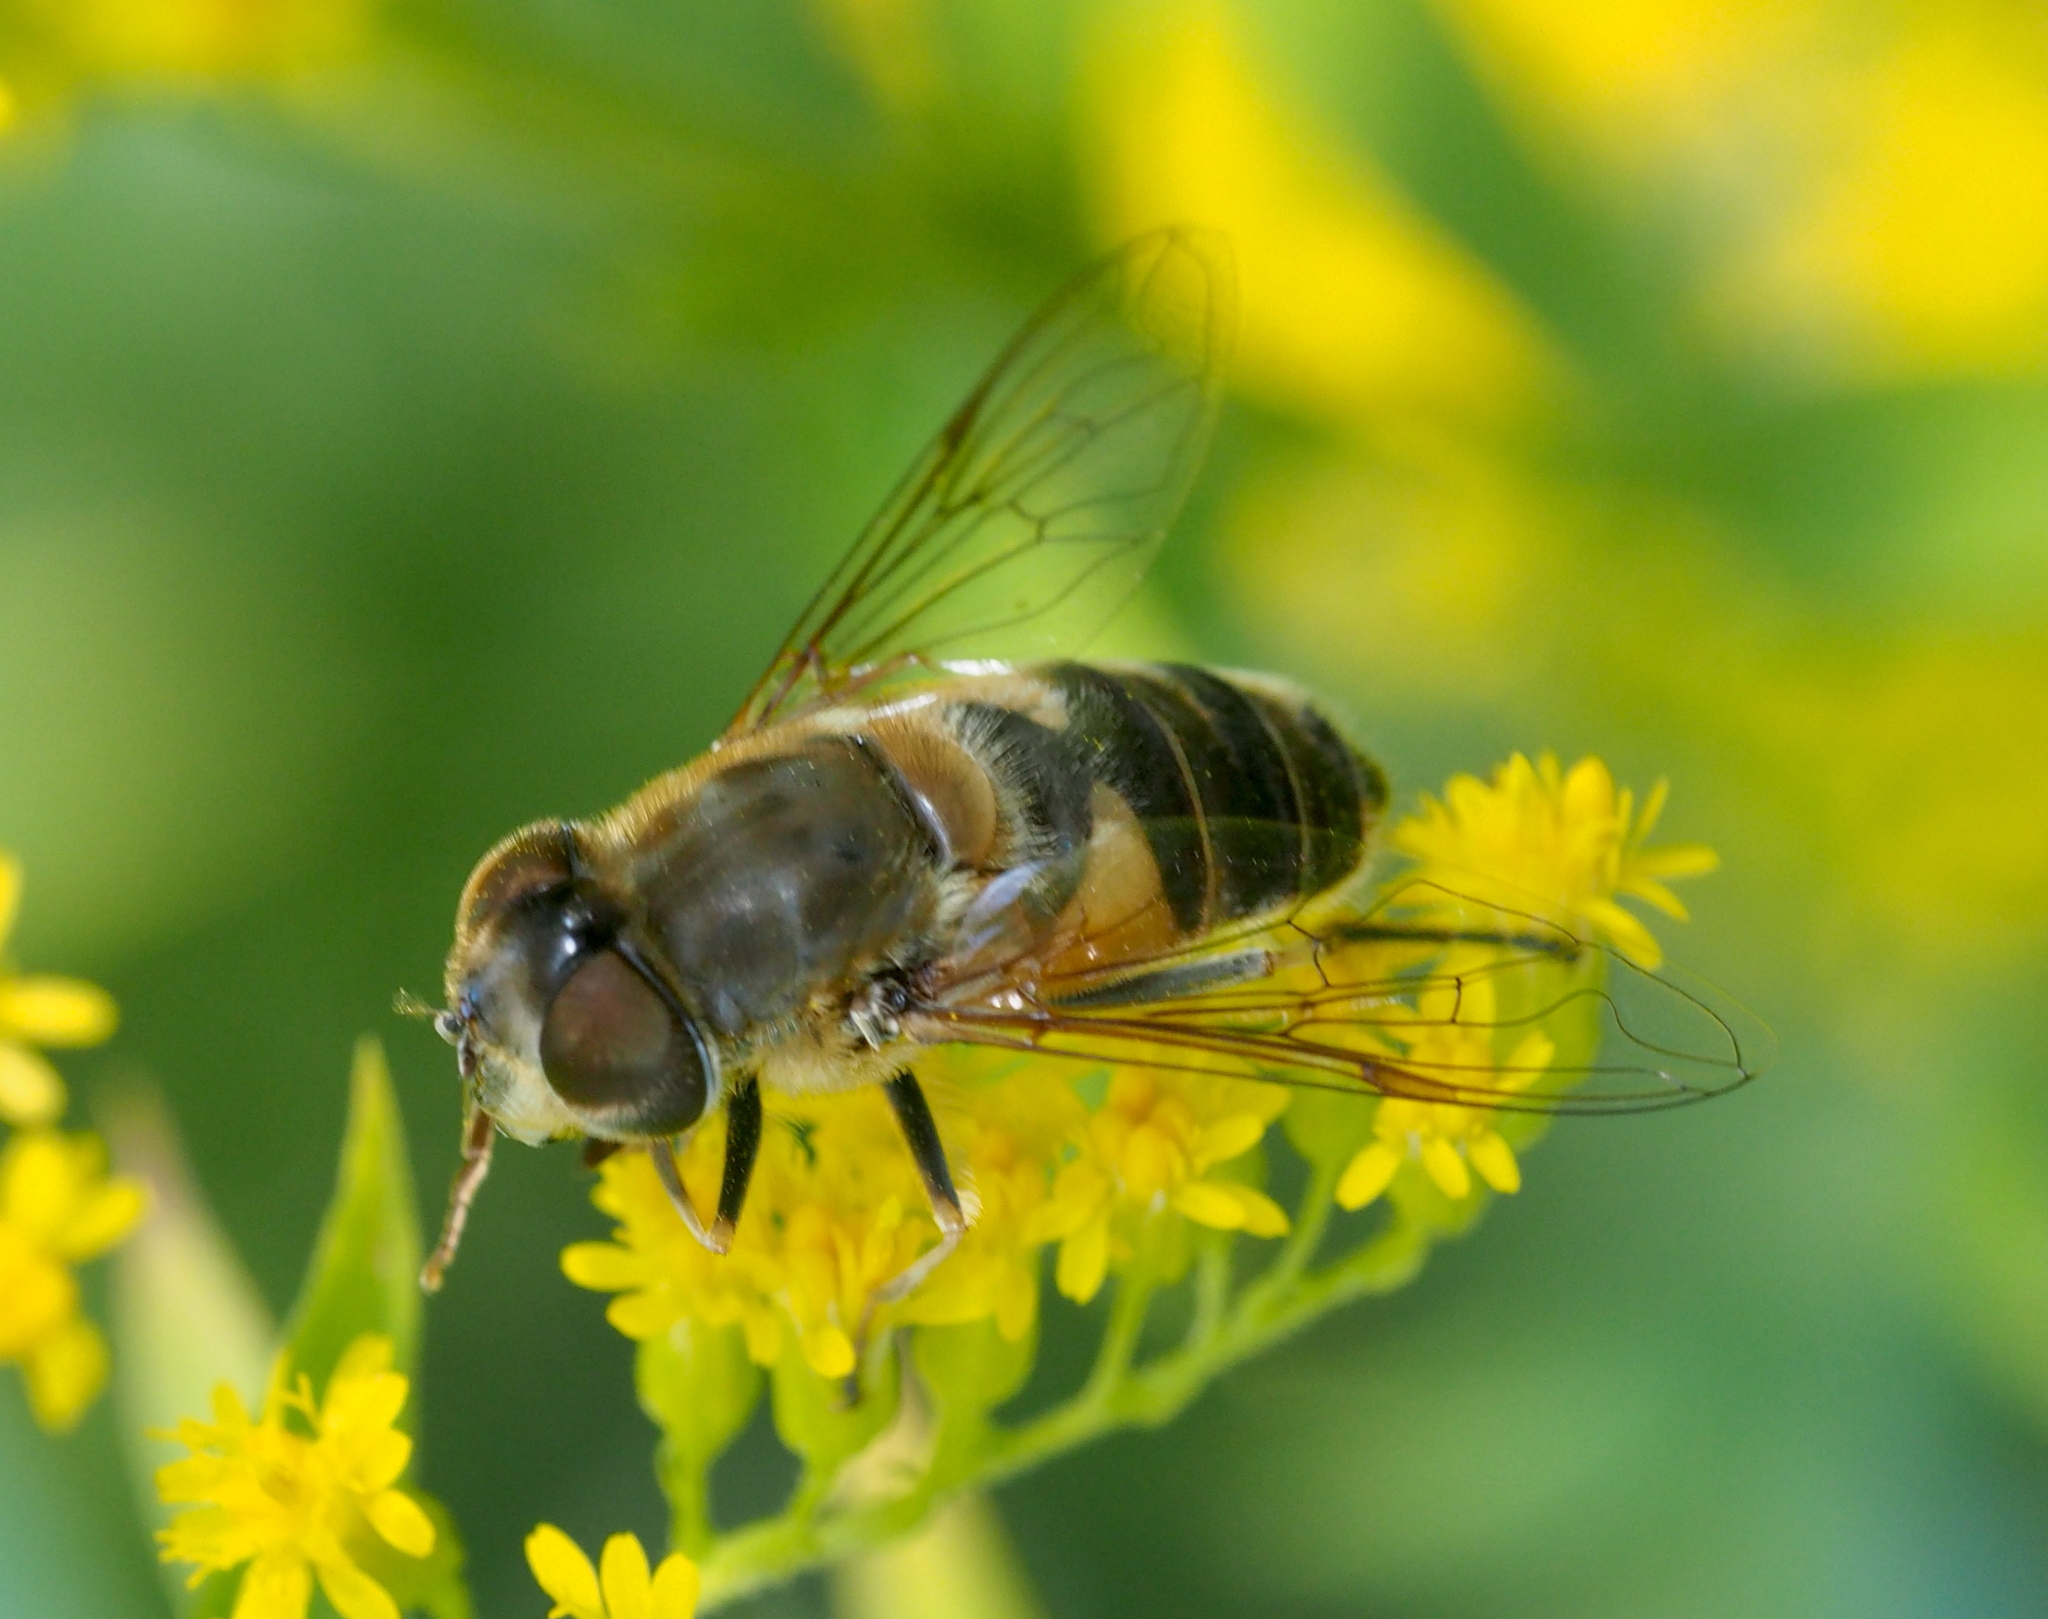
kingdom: Animalia
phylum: Arthropoda
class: Insecta
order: Diptera
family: Syrphidae
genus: Eristalis
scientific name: Eristalis pertinax
